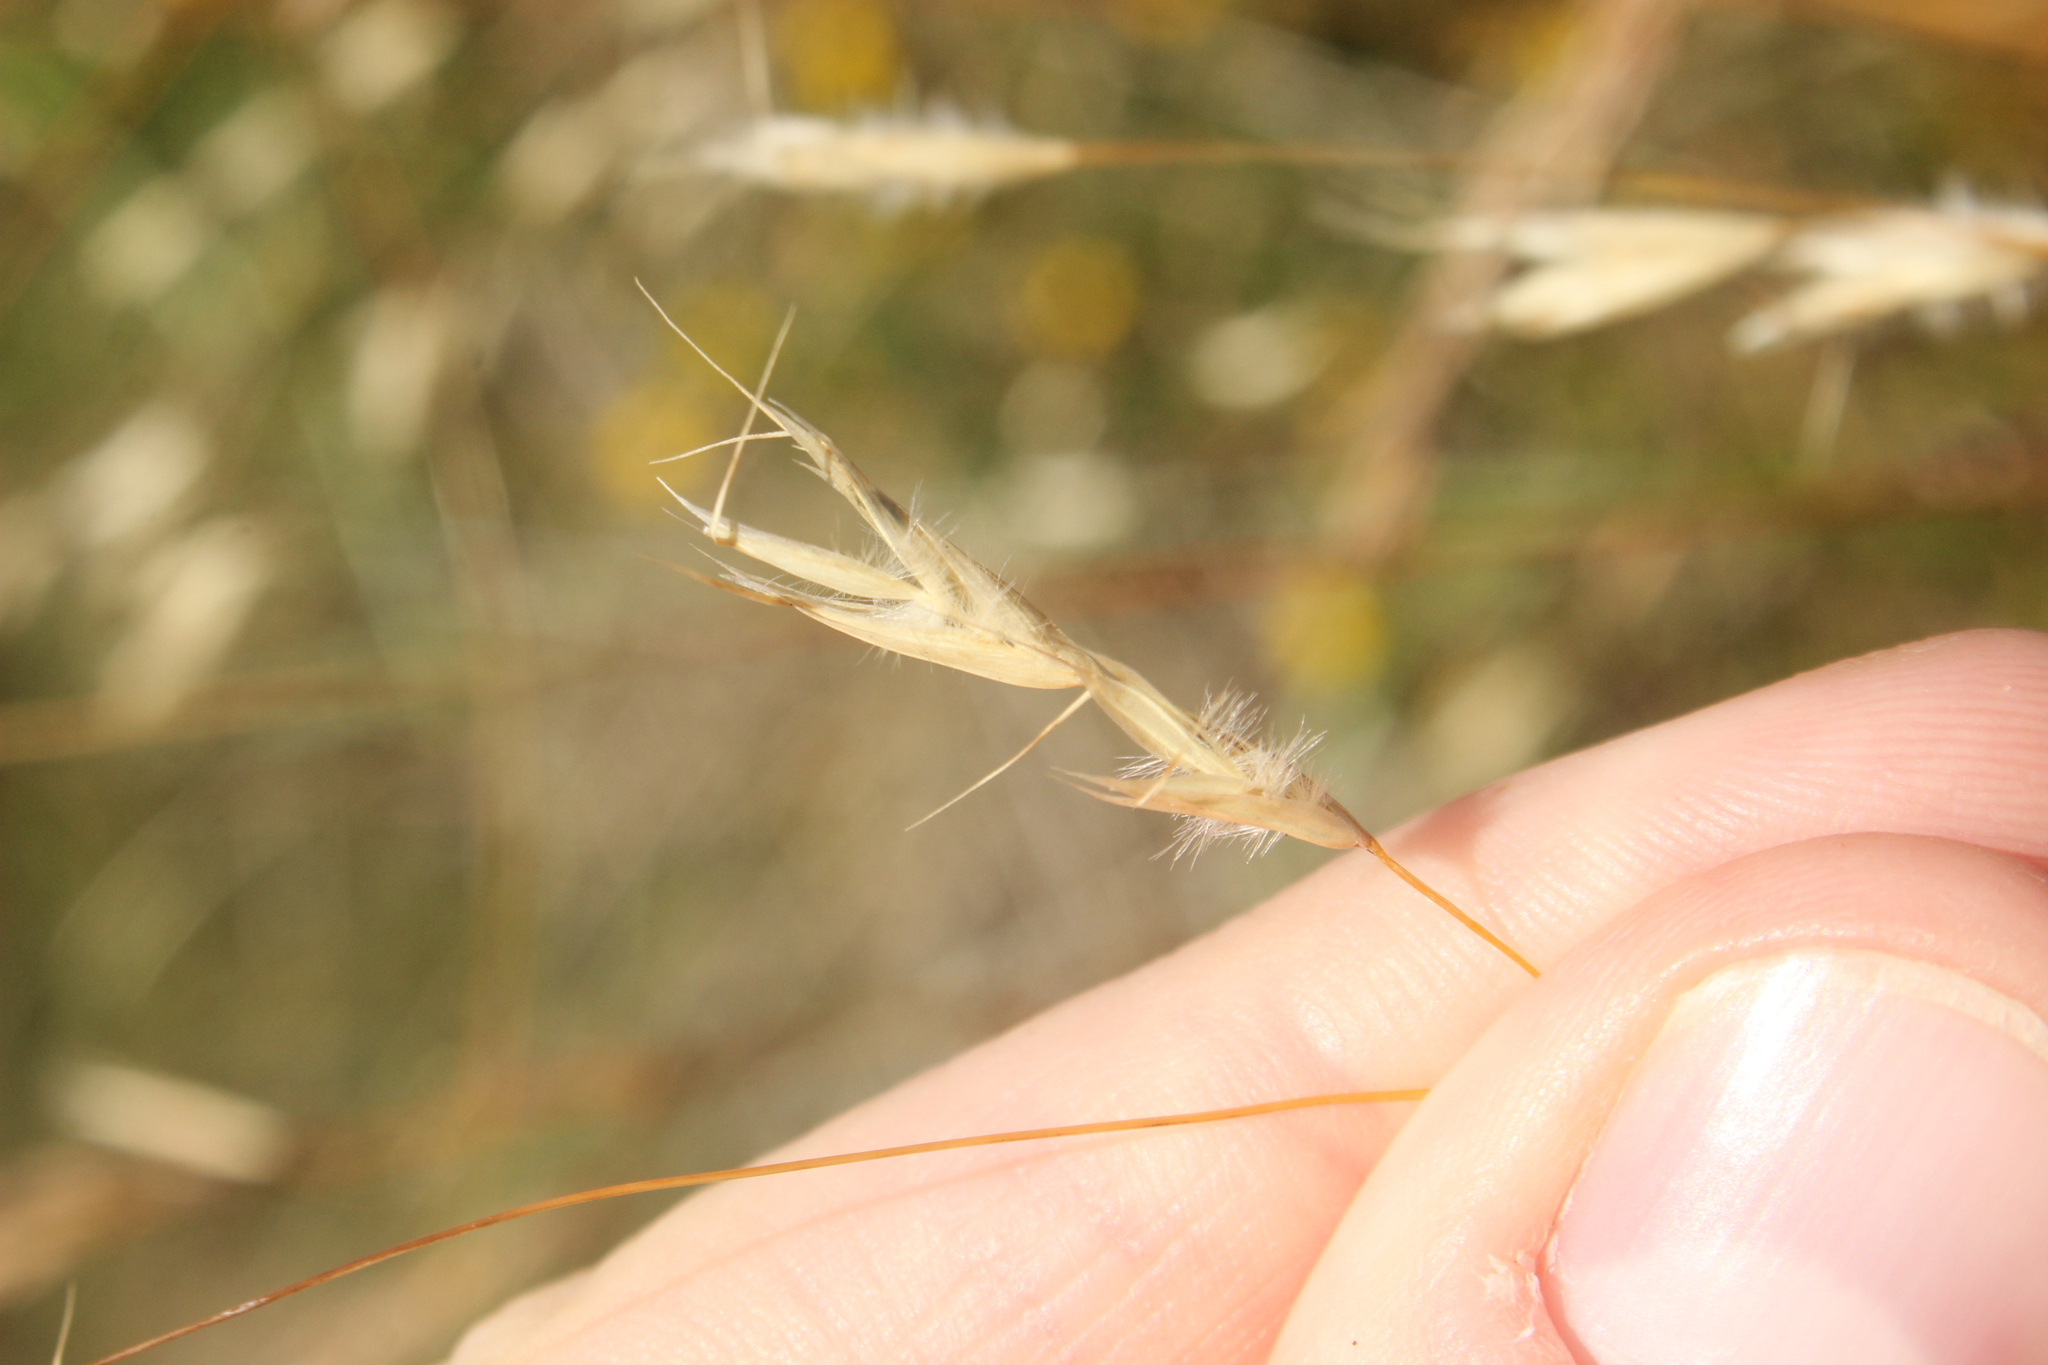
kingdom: Plantae
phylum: Tracheophyta
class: Liliopsida
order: Poales
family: Poaceae
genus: Chionochloa
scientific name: Chionochloa rubra
